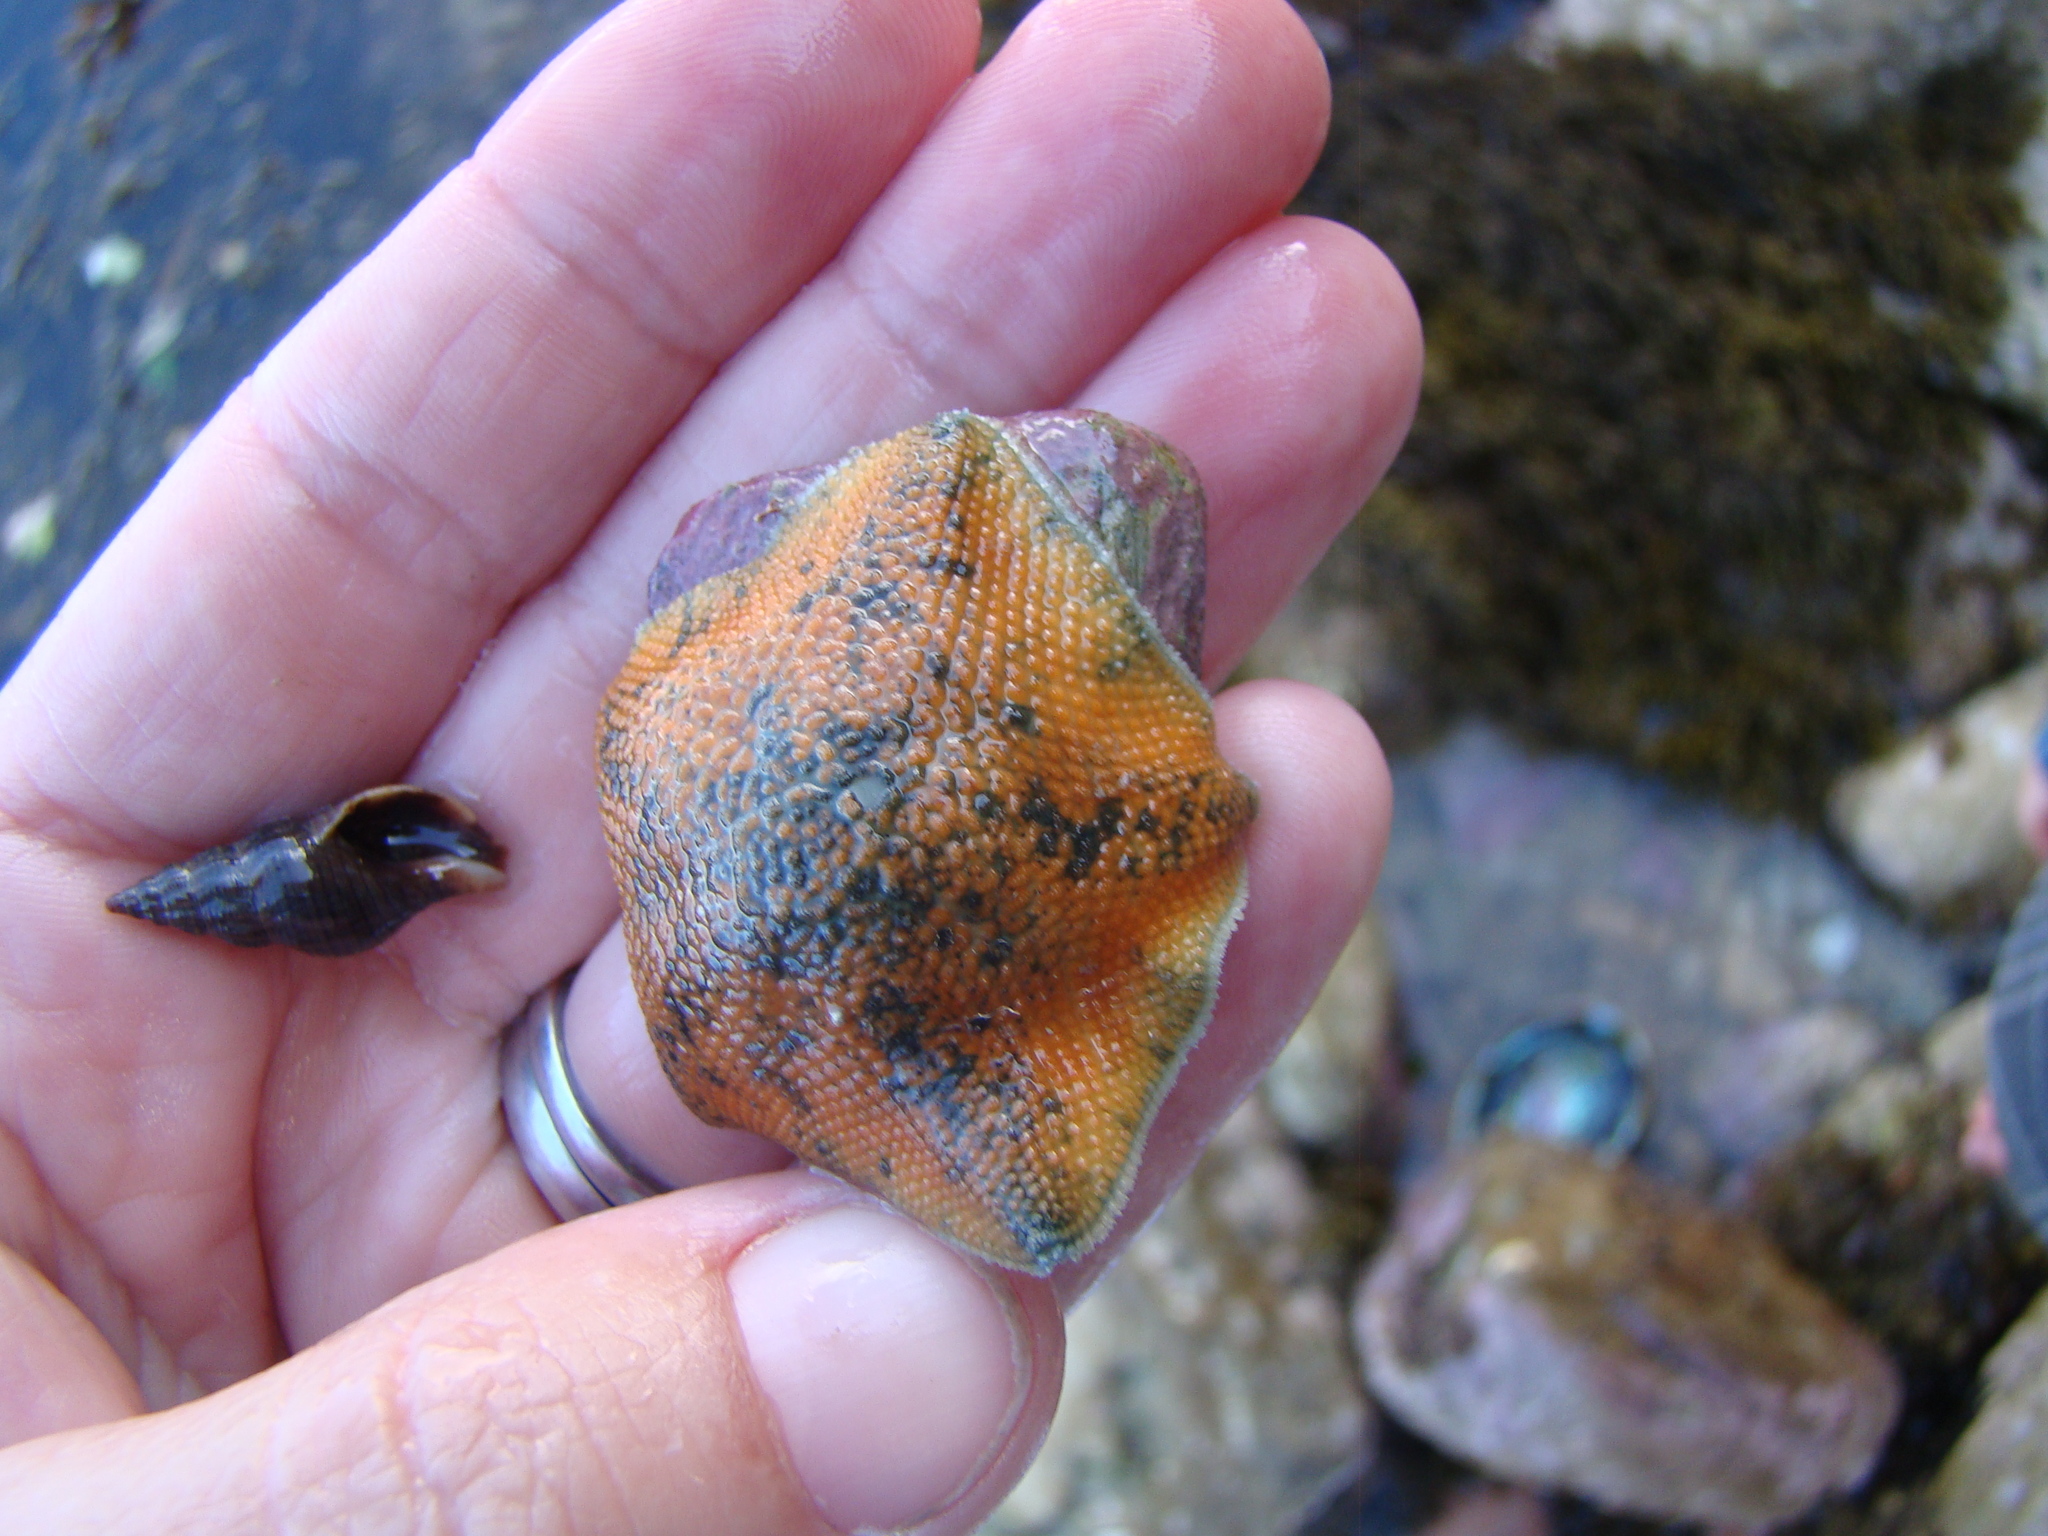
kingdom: Animalia
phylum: Echinodermata
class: Asteroidea
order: Valvatida
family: Asterinidae
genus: Patiriella
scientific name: Patiriella regularis
